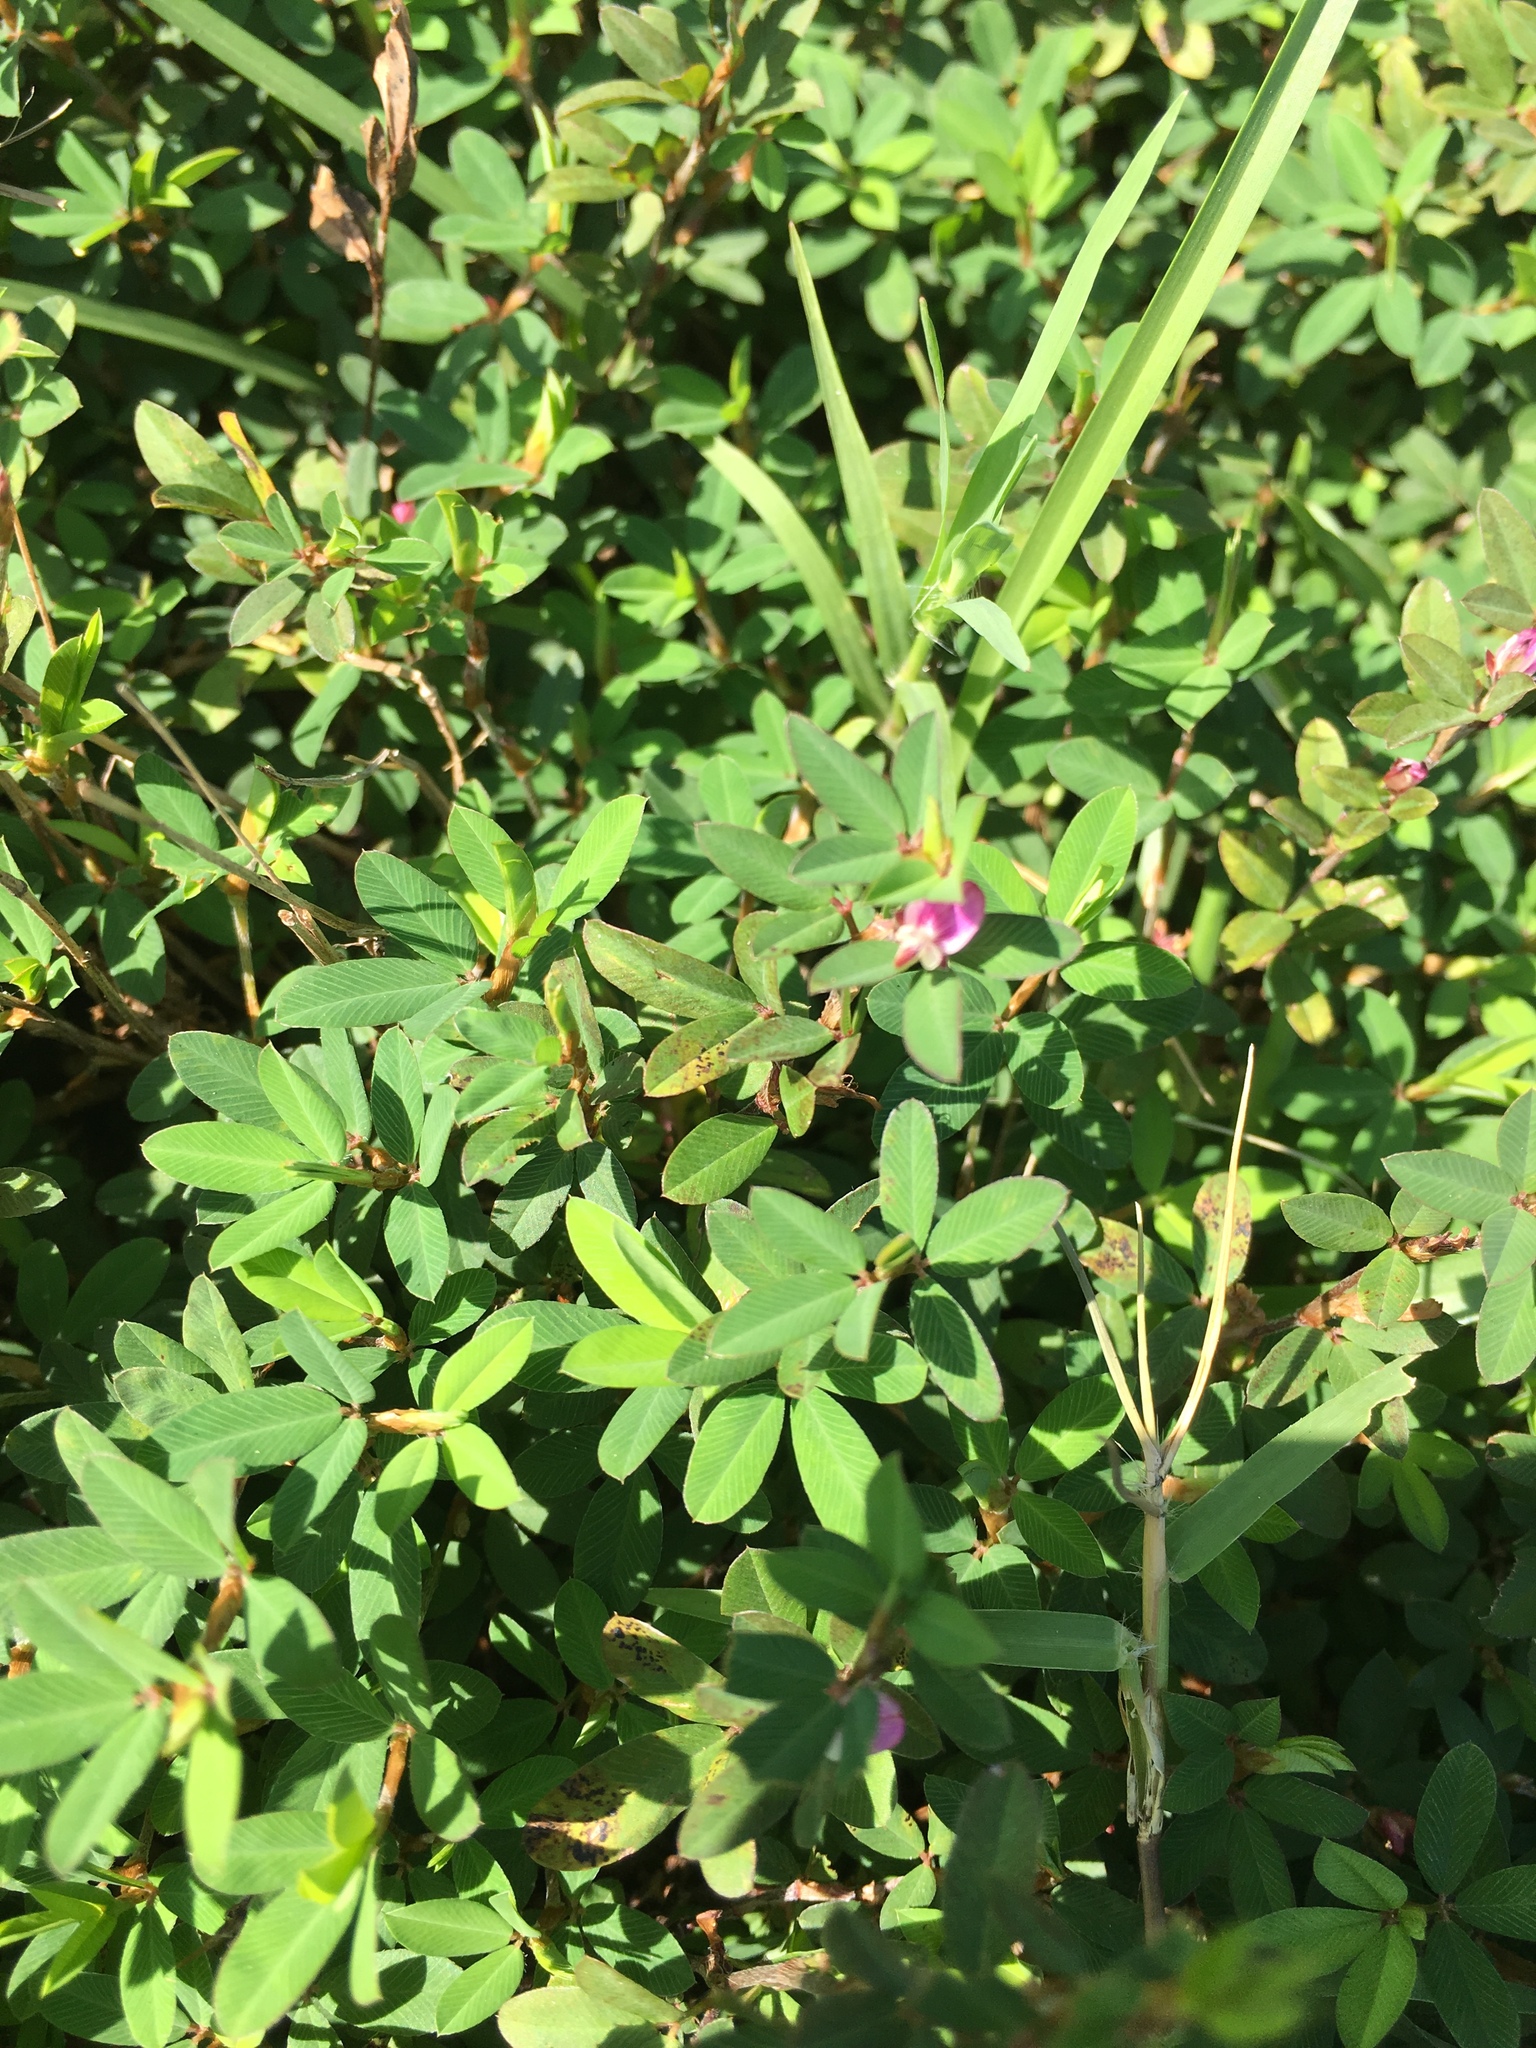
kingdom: Plantae
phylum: Tracheophyta
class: Magnoliopsida
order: Fabales
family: Fabaceae
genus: Kummerowia
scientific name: Kummerowia striata
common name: Japanese clover
